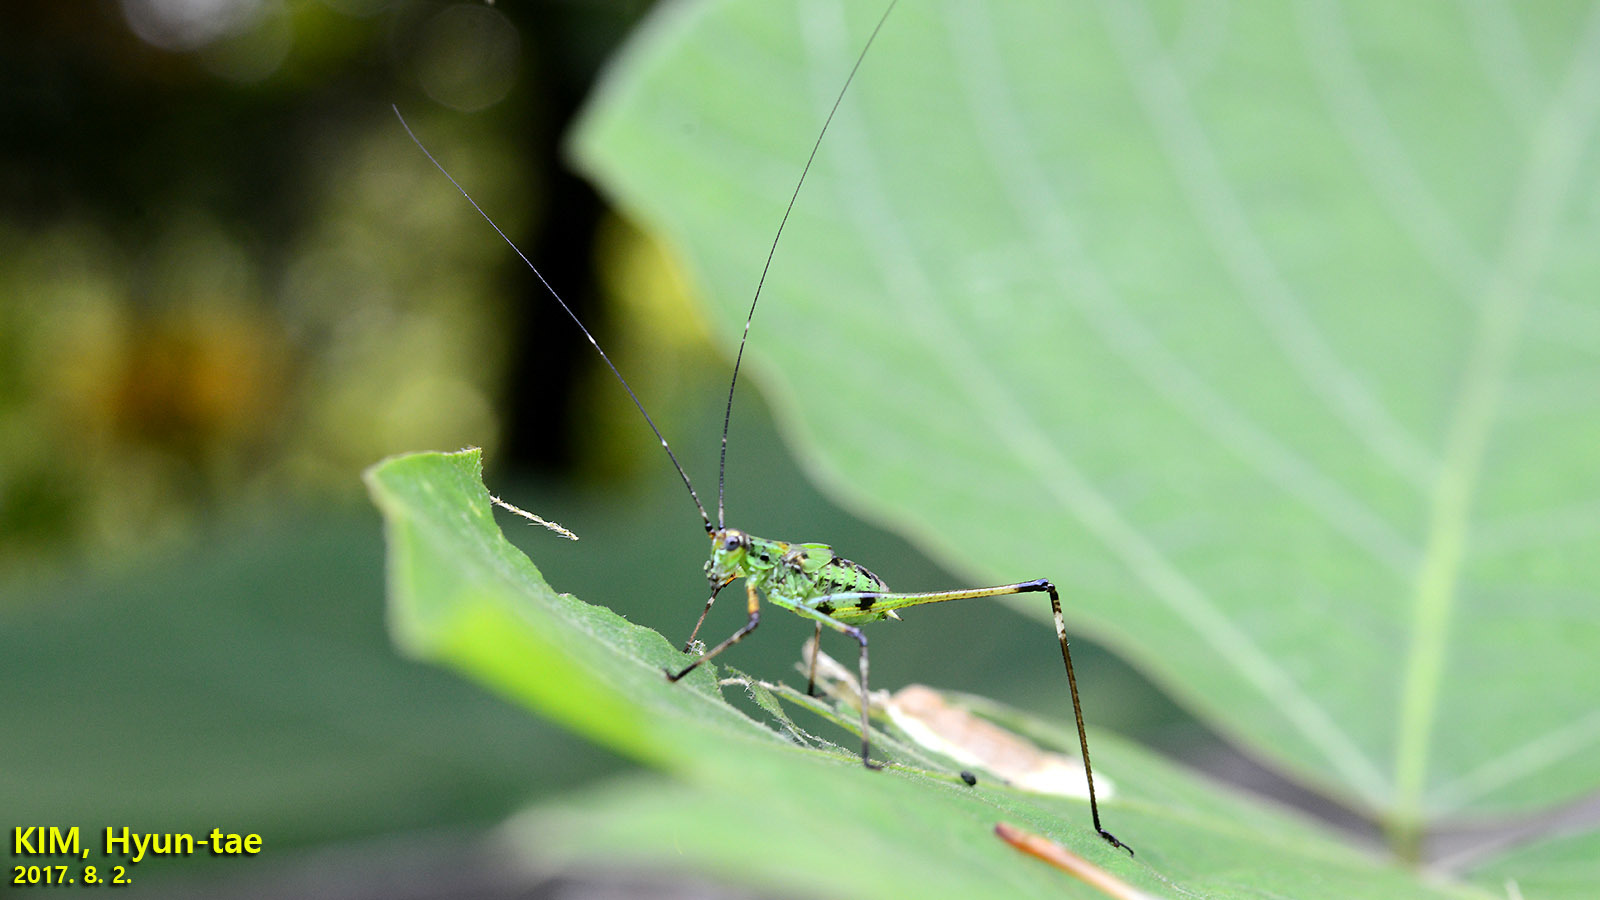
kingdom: Animalia
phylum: Arthropoda
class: Insecta
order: Orthoptera
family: Tettigoniidae
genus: Phaneroptera
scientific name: Phaneroptera nigroantennata
